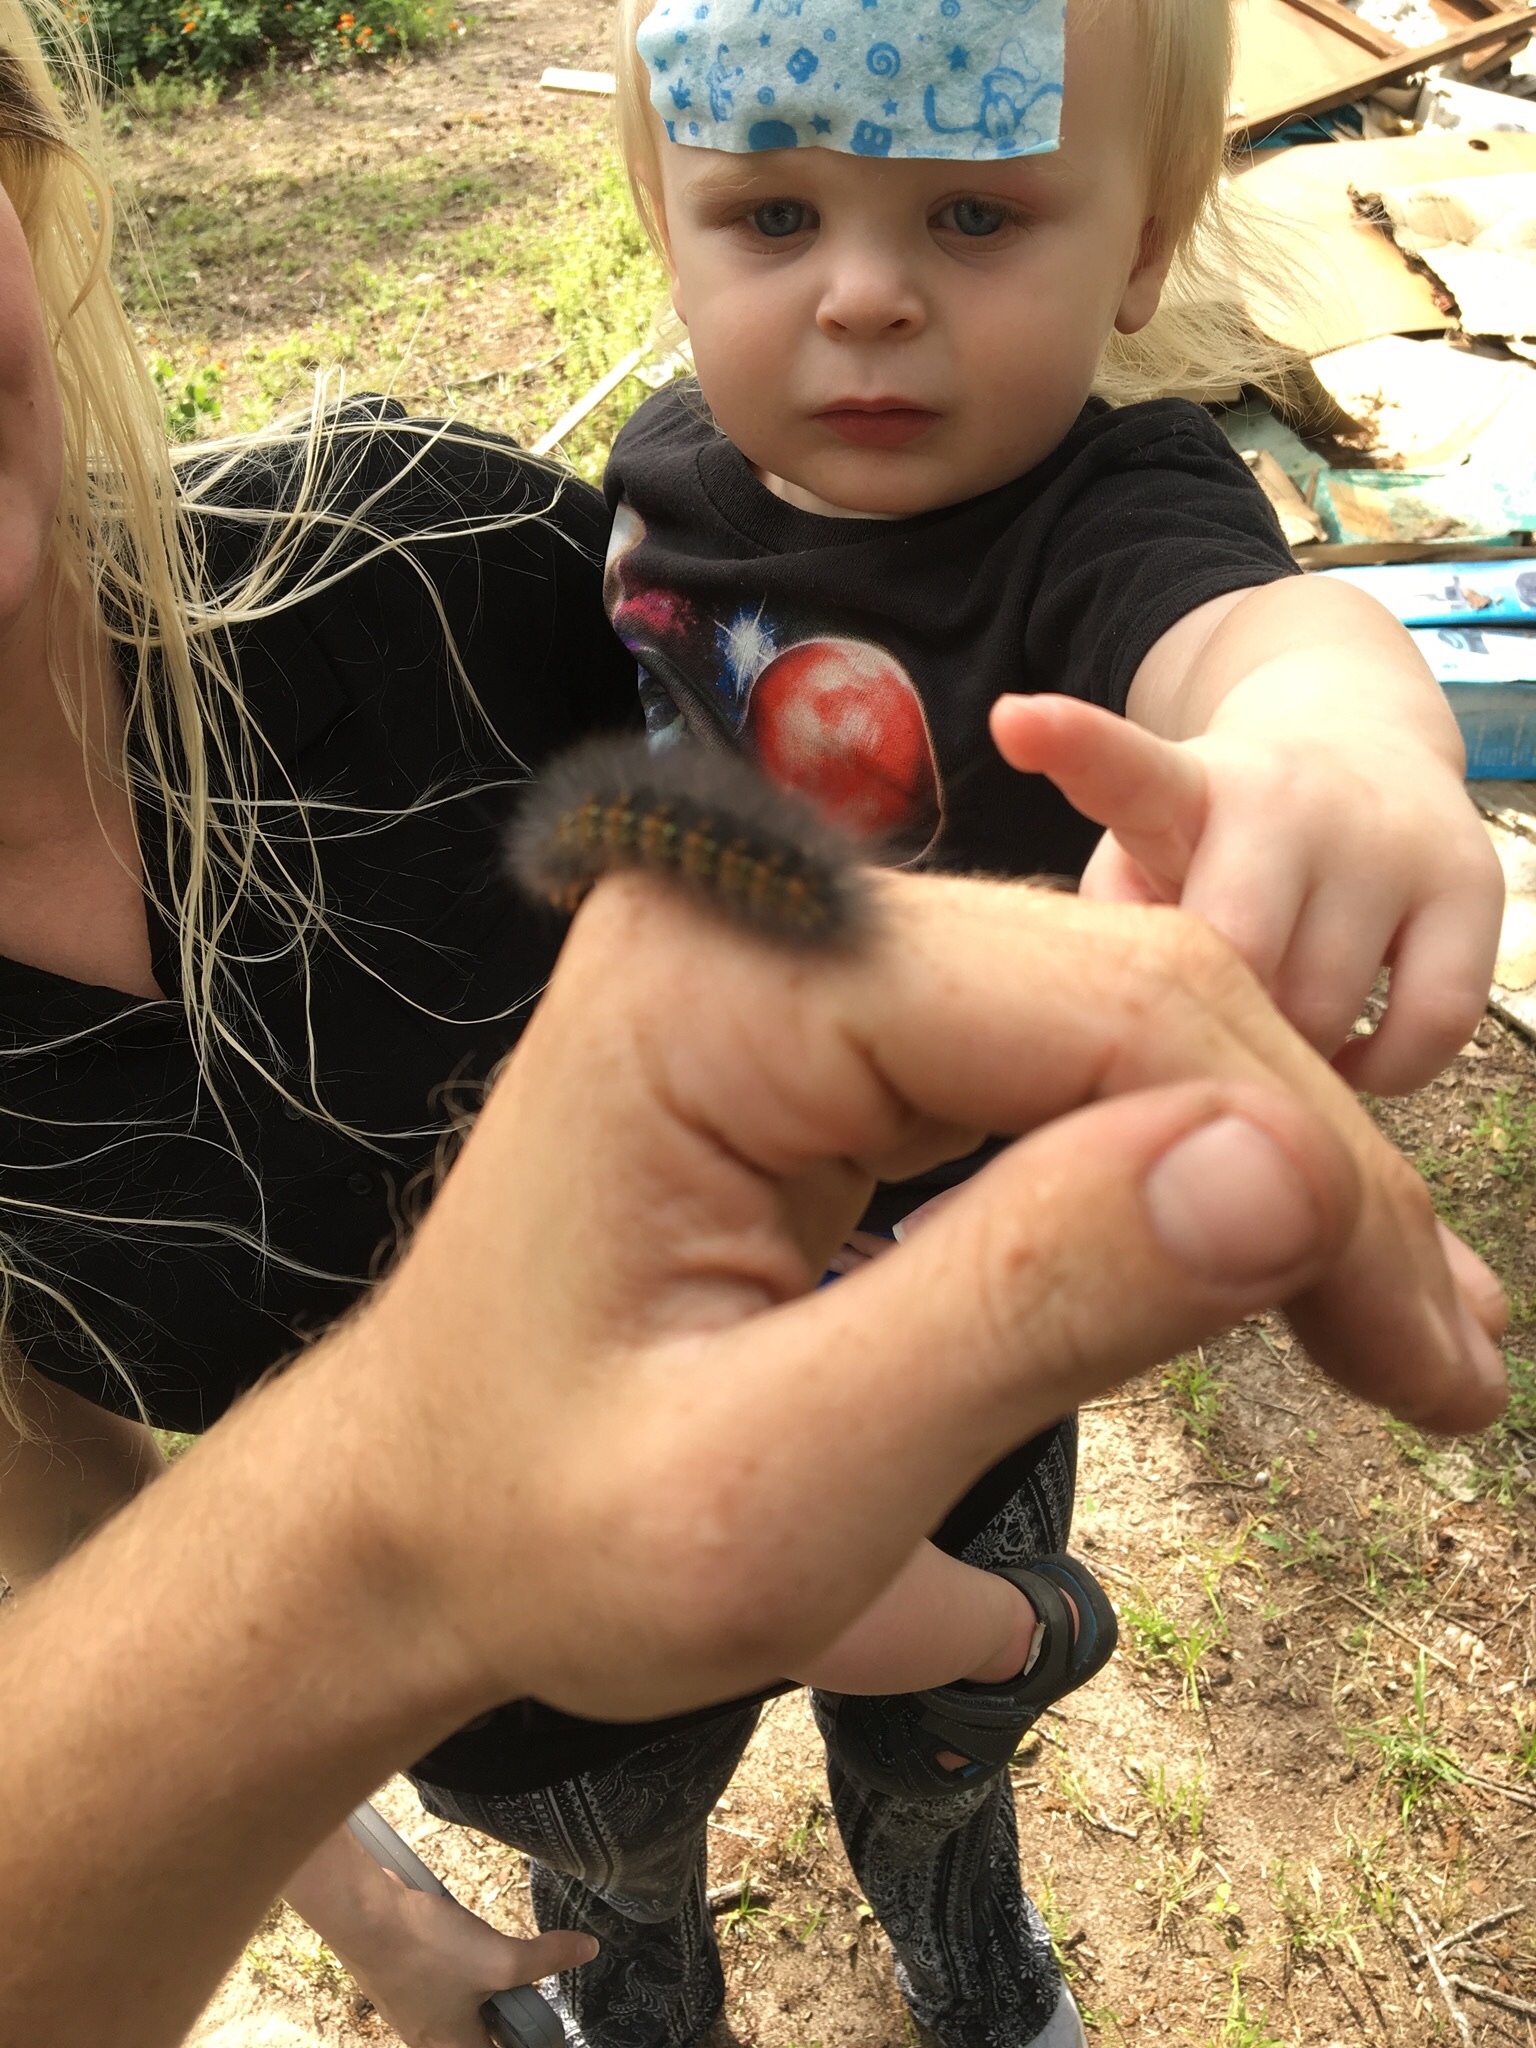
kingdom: Animalia
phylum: Arthropoda
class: Insecta
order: Lepidoptera
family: Erebidae
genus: Estigmene
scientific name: Estigmene acrea
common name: Salt marsh moth
